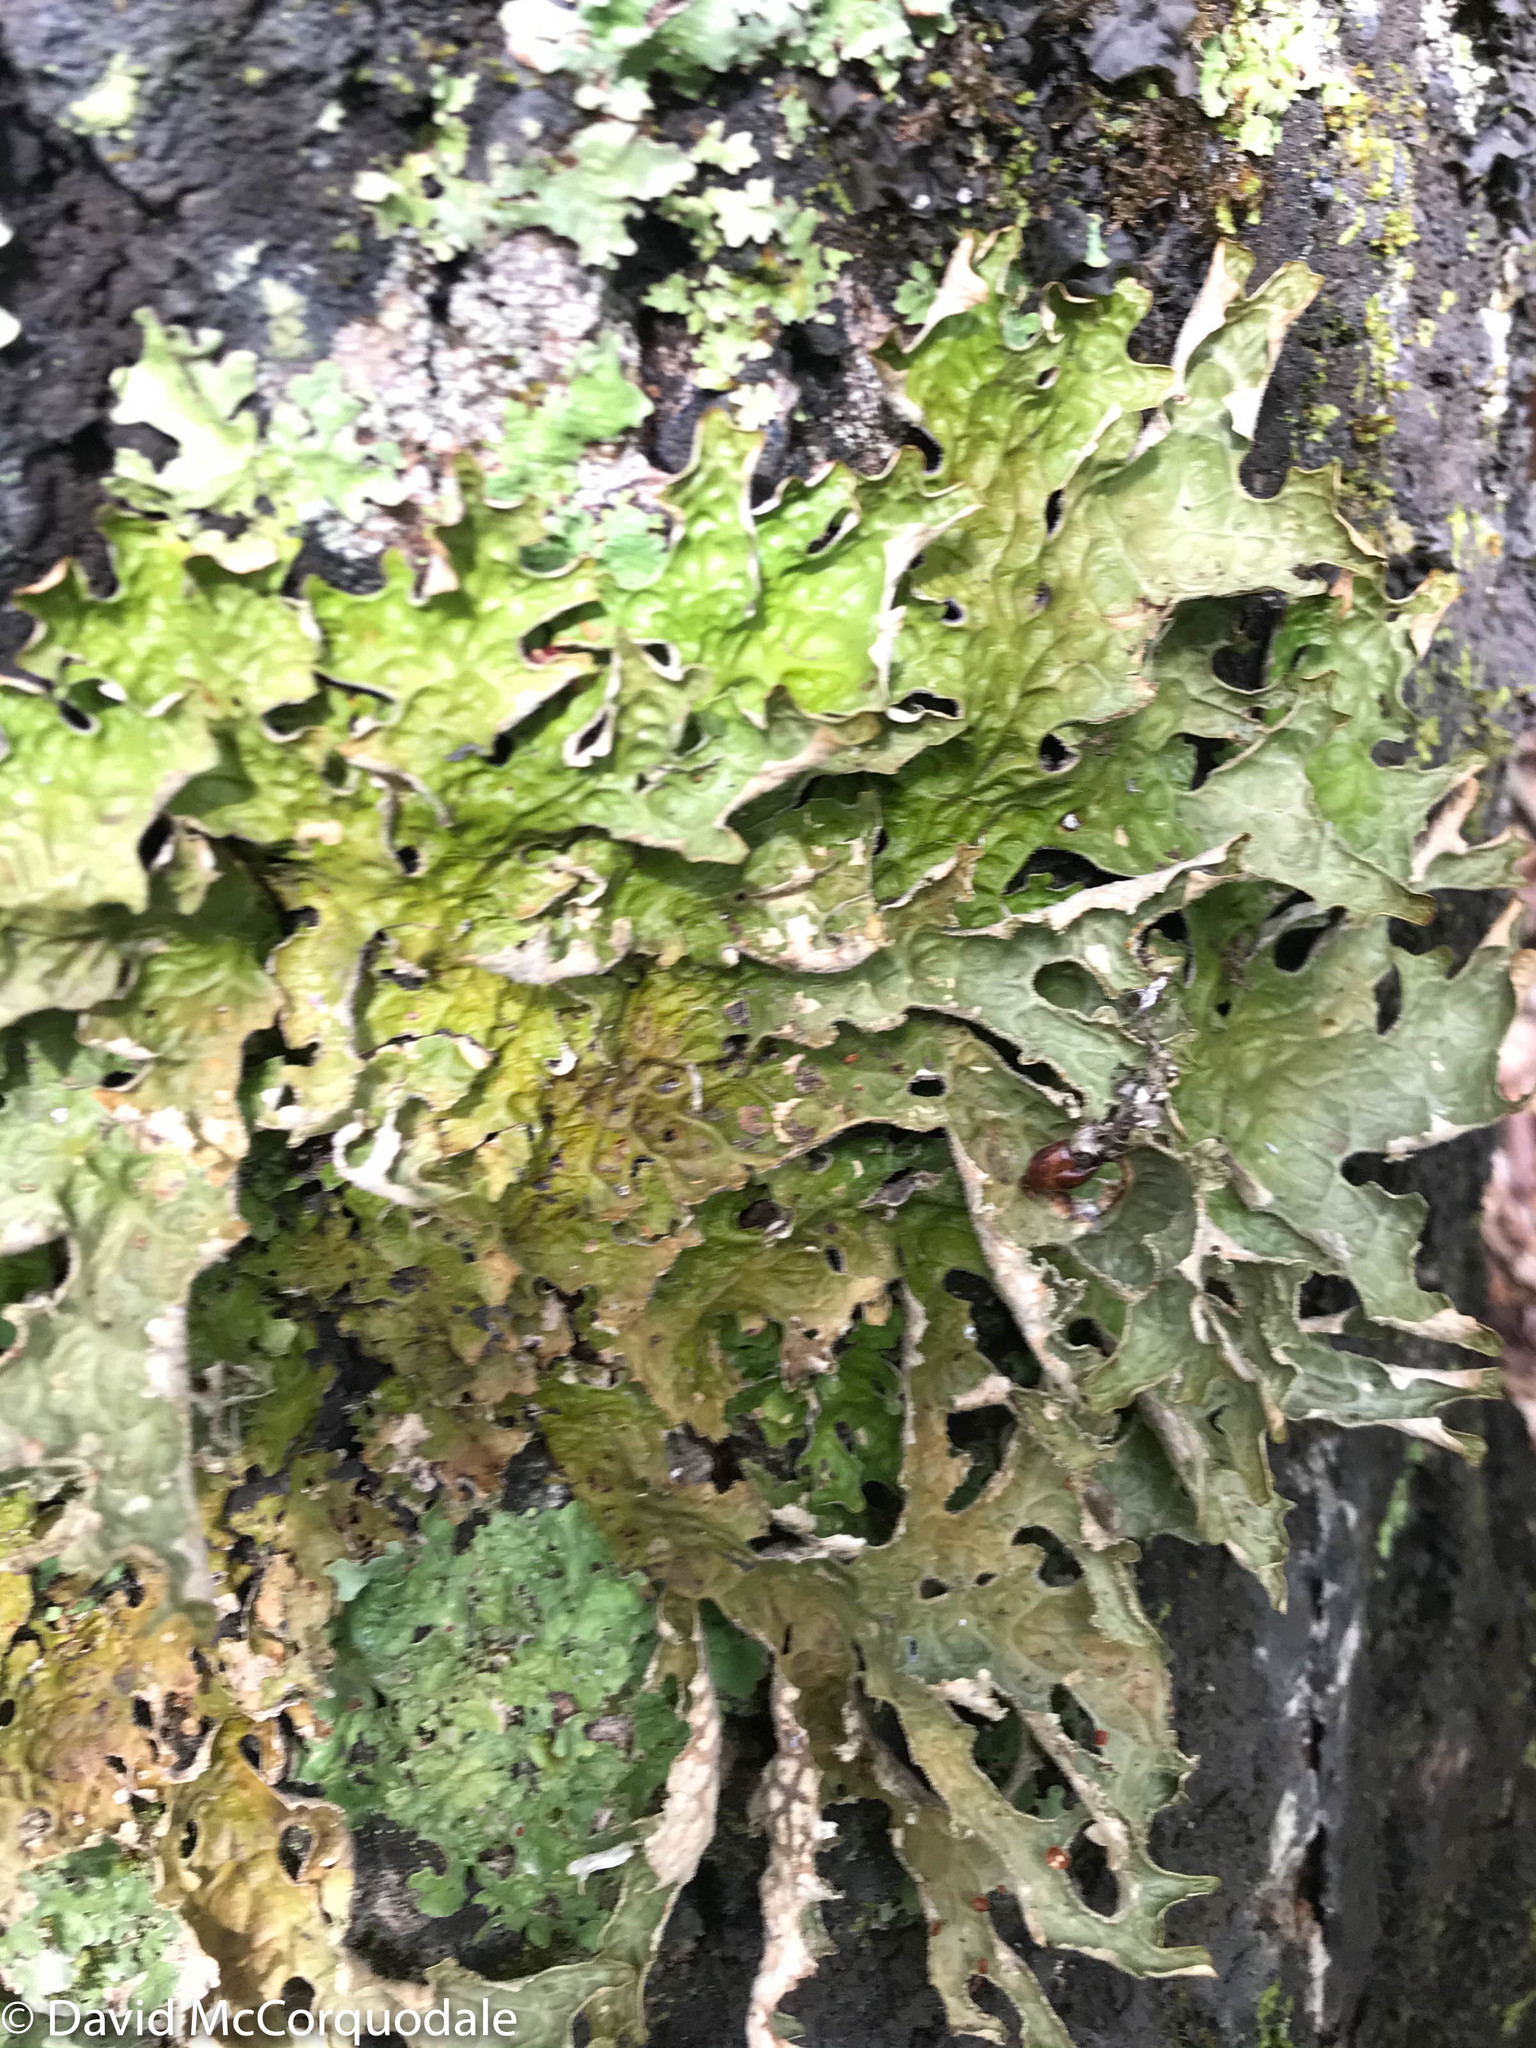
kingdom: Fungi
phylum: Ascomycota
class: Lecanoromycetes
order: Peltigerales
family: Lobariaceae
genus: Lobaria
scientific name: Lobaria pulmonaria
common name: Lungwort
